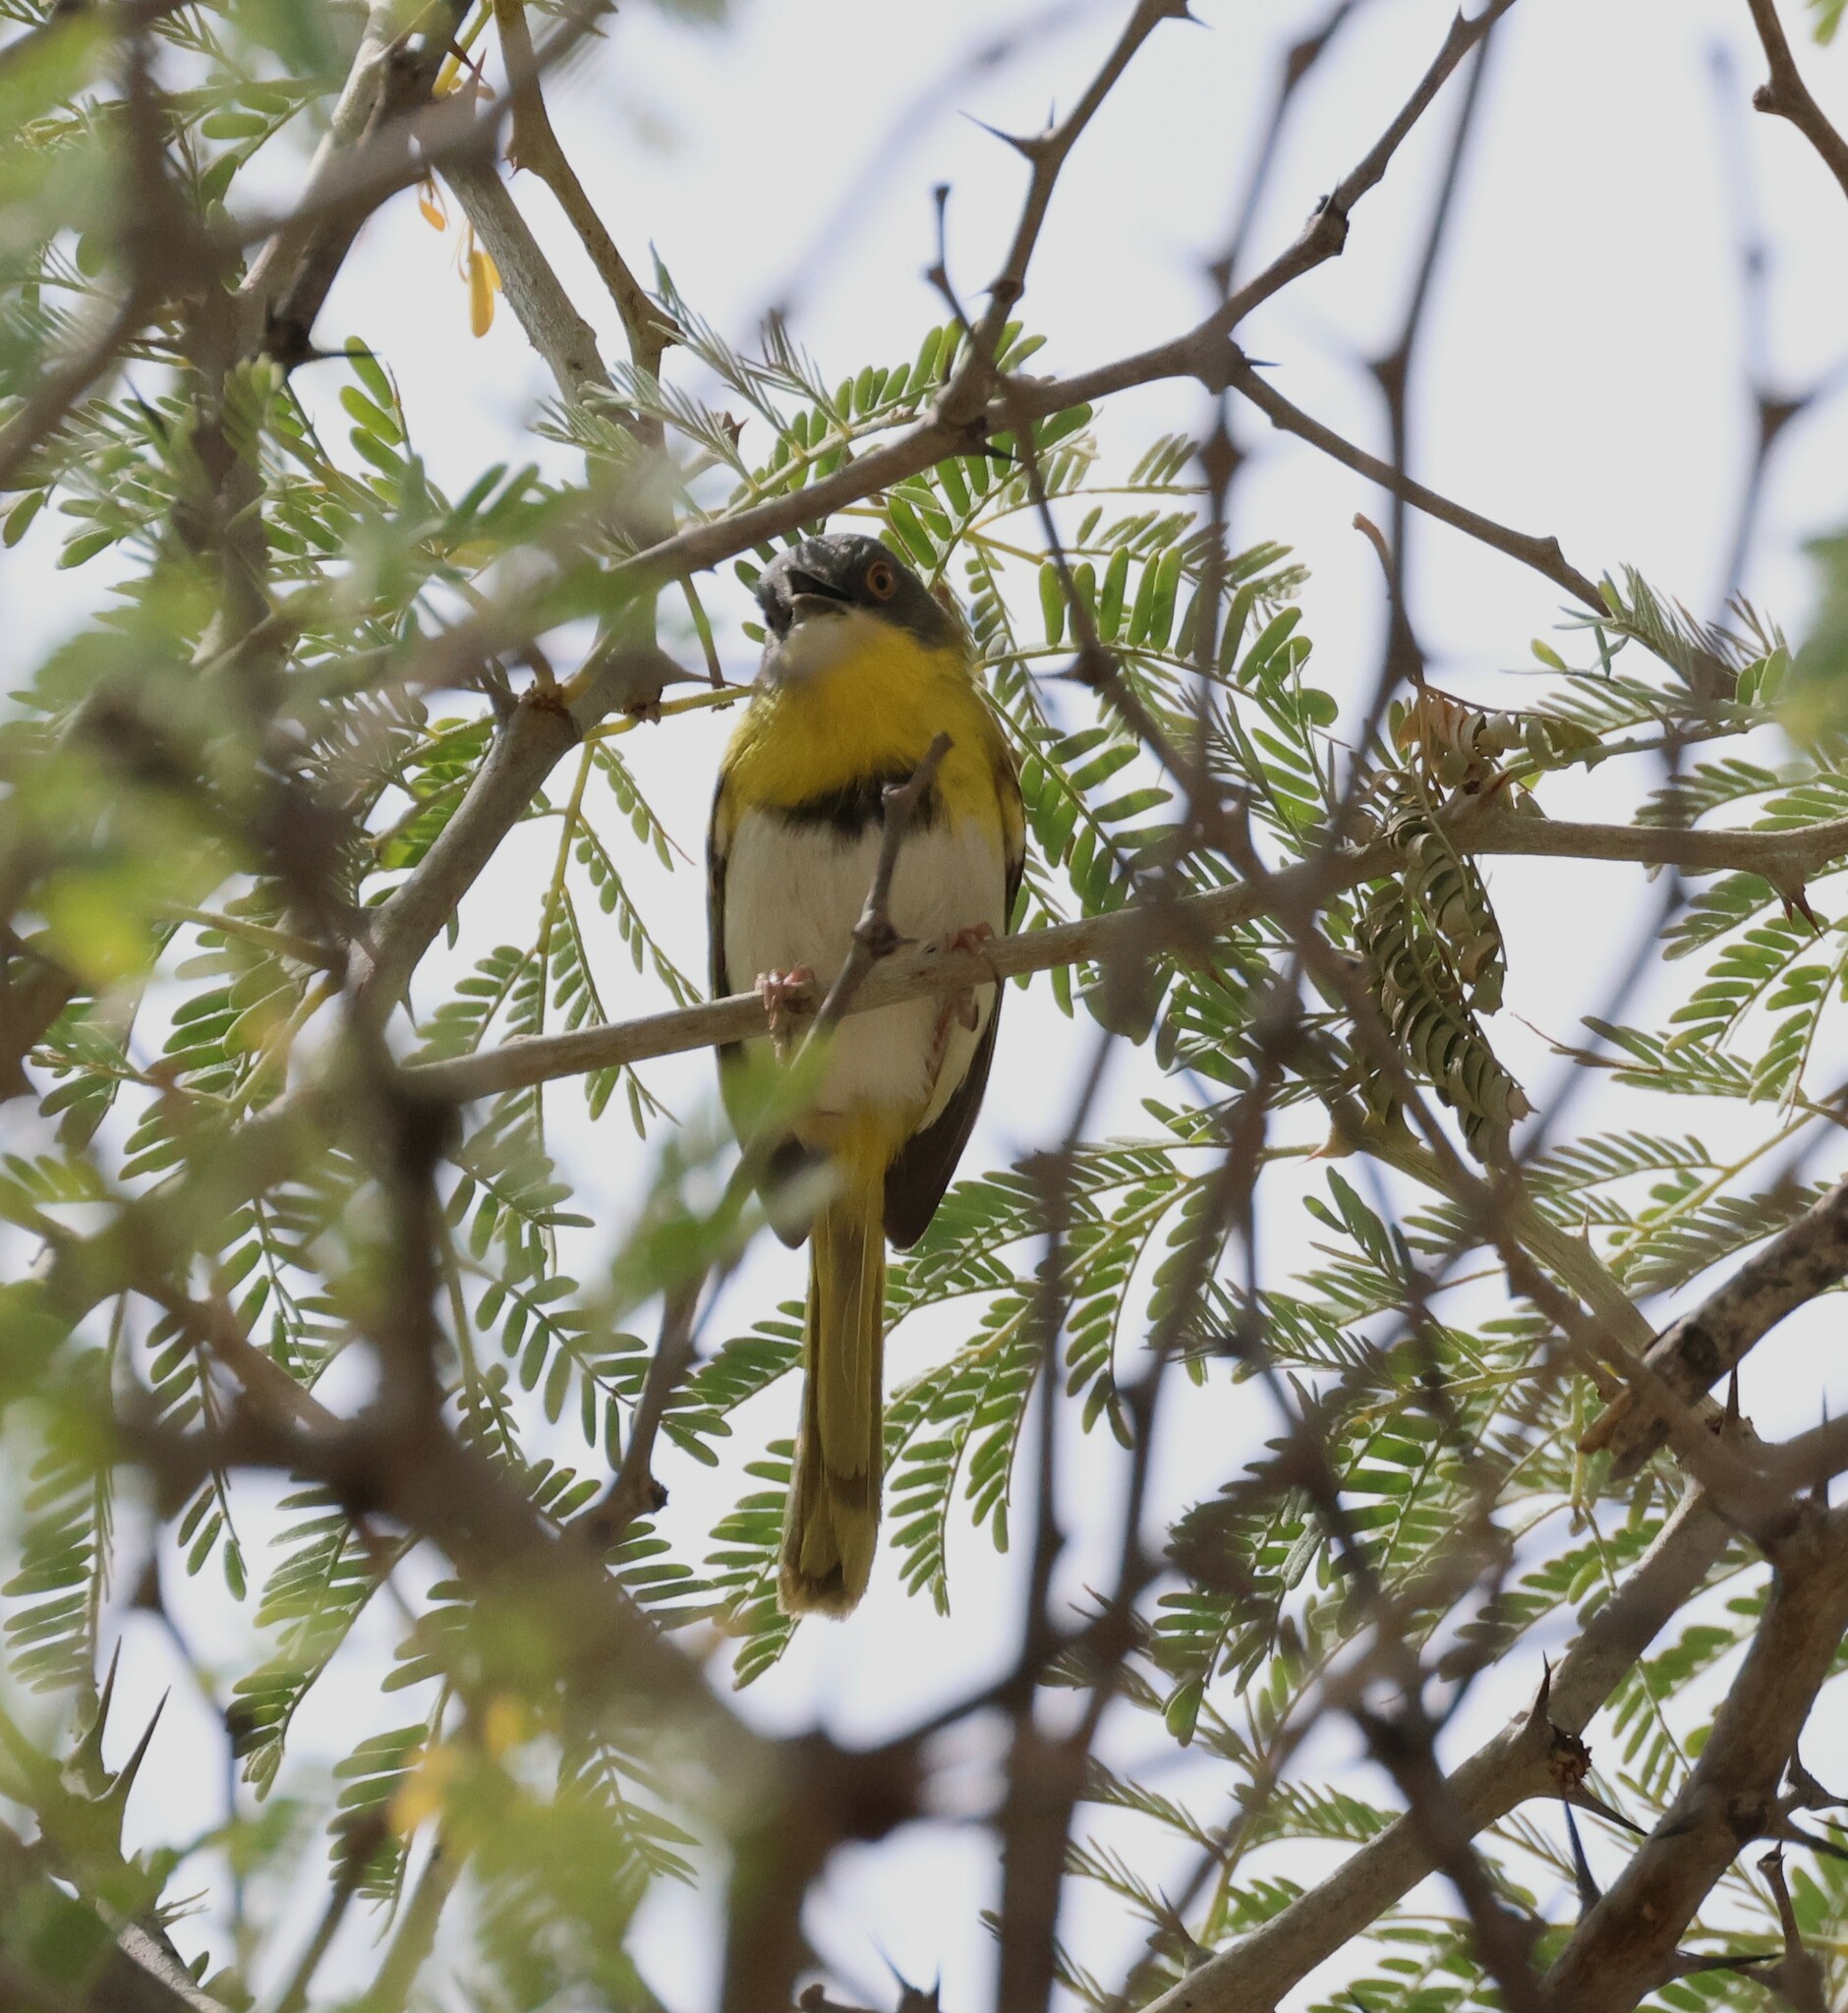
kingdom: Animalia
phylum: Chordata
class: Aves
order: Passeriformes
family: Cisticolidae
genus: Apalis
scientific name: Apalis flavida
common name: Yellow-breasted apalis
